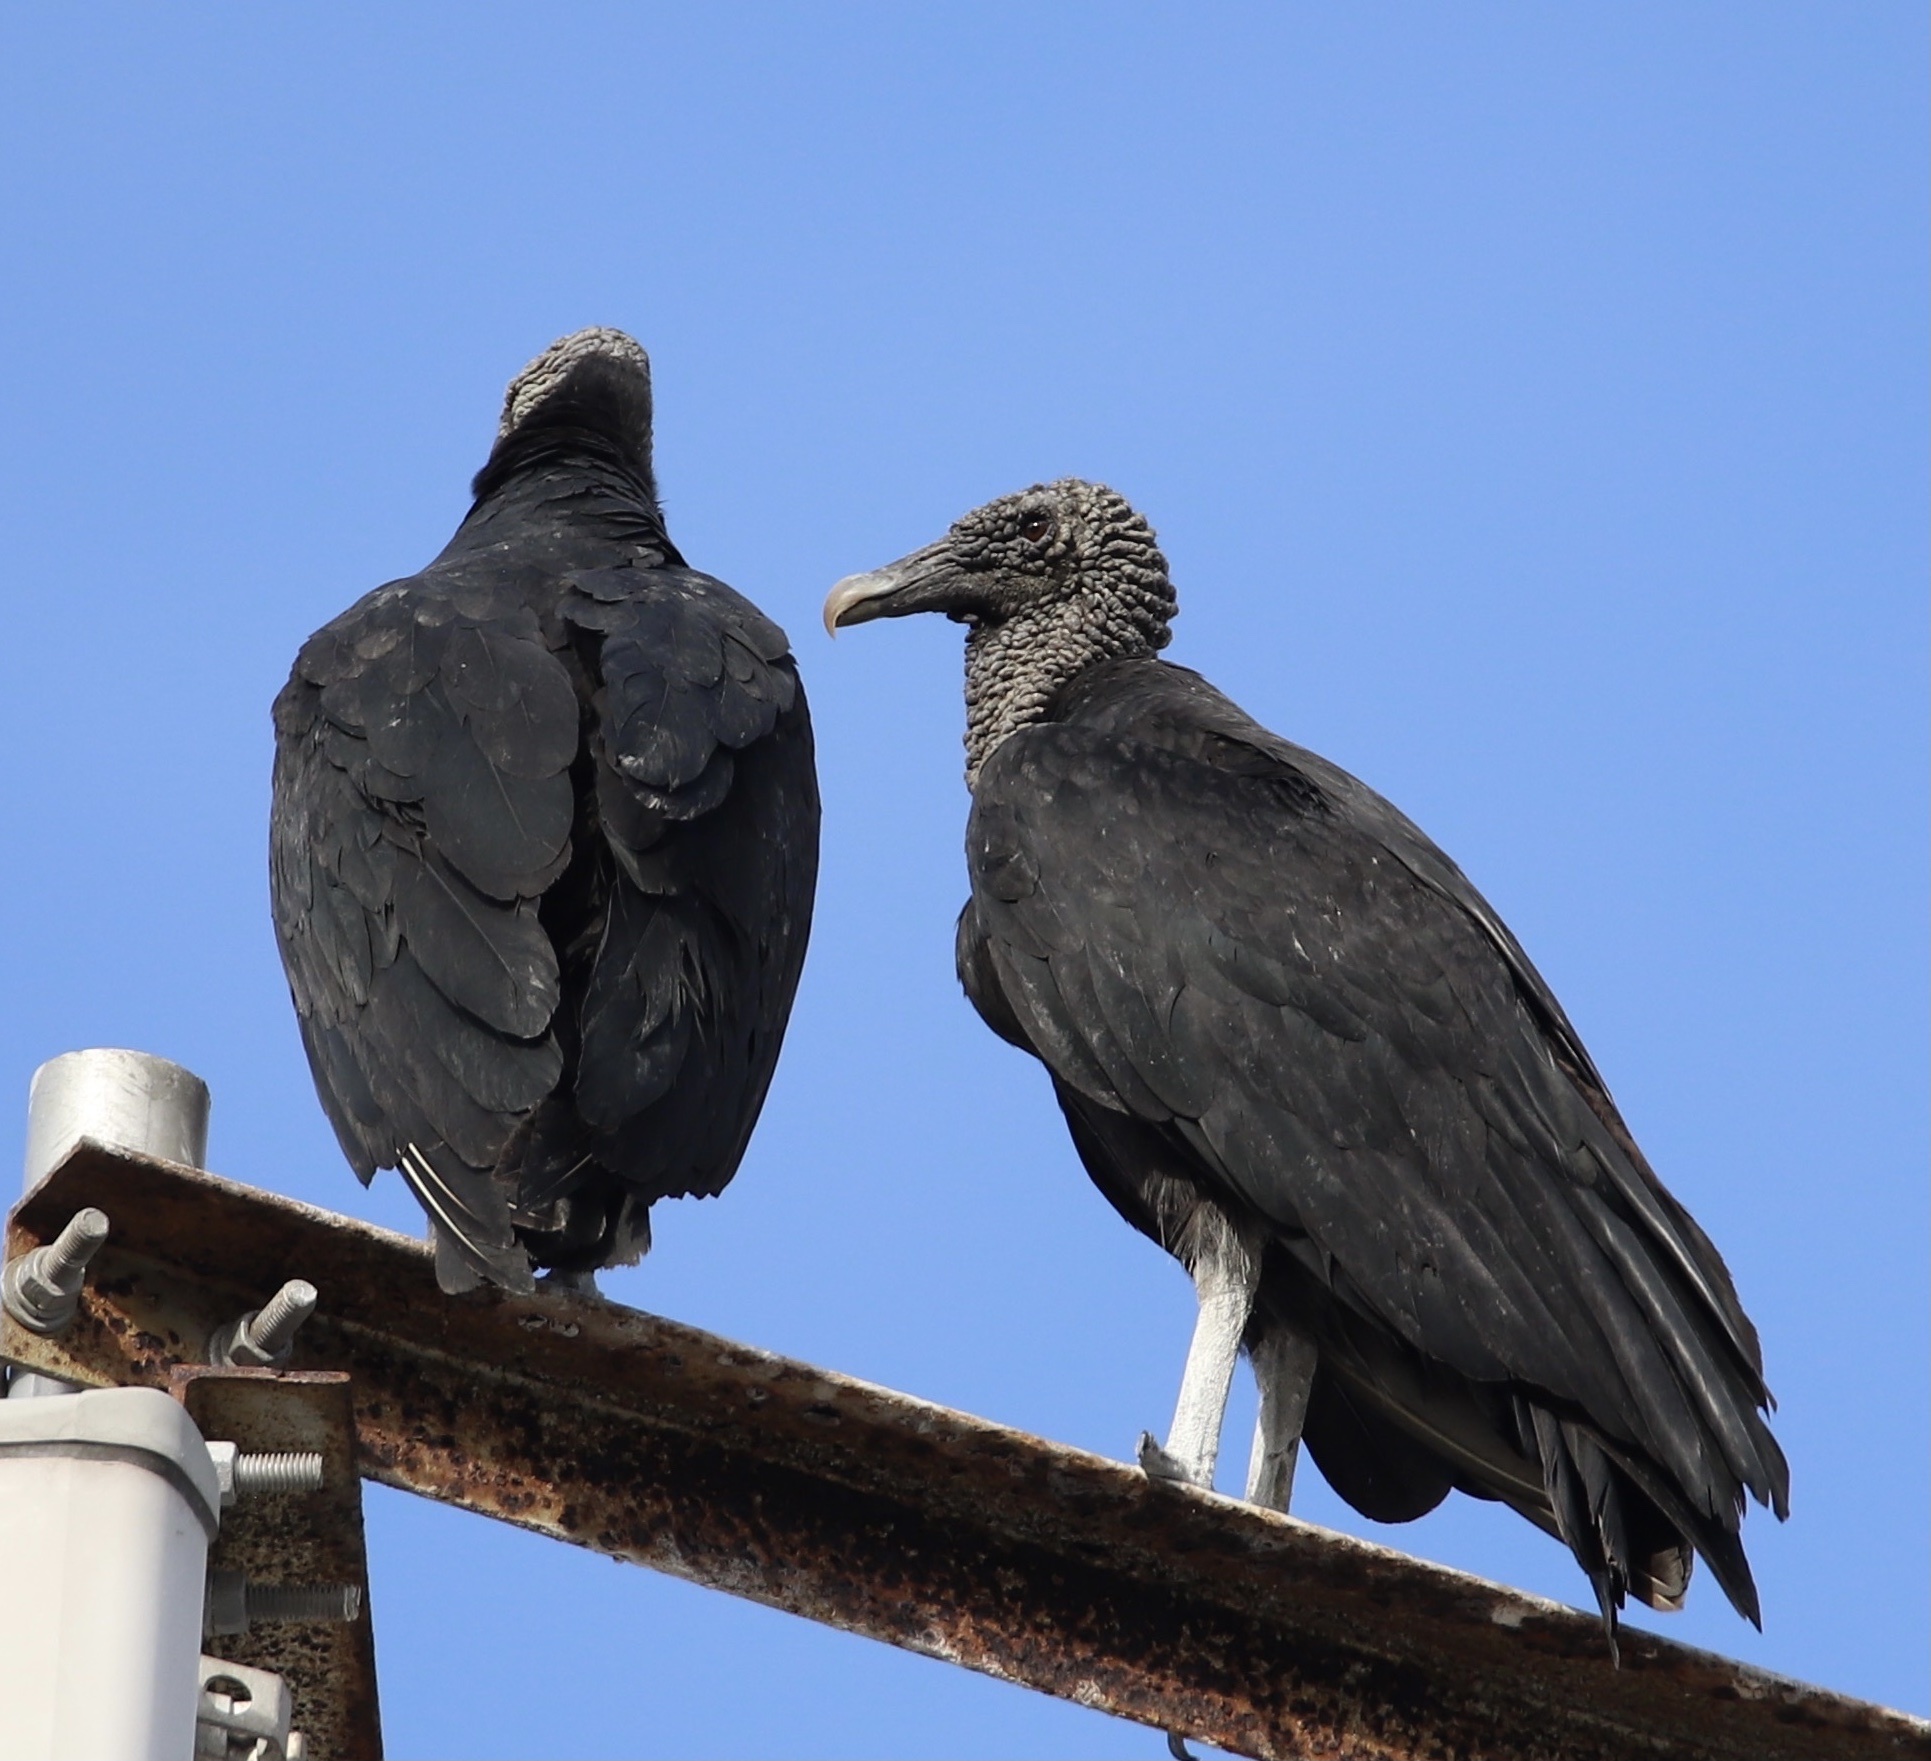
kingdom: Animalia
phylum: Chordata
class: Aves
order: Accipitriformes
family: Cathartidae
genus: Coragyps
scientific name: Coragyps atratus
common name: Black vulture
